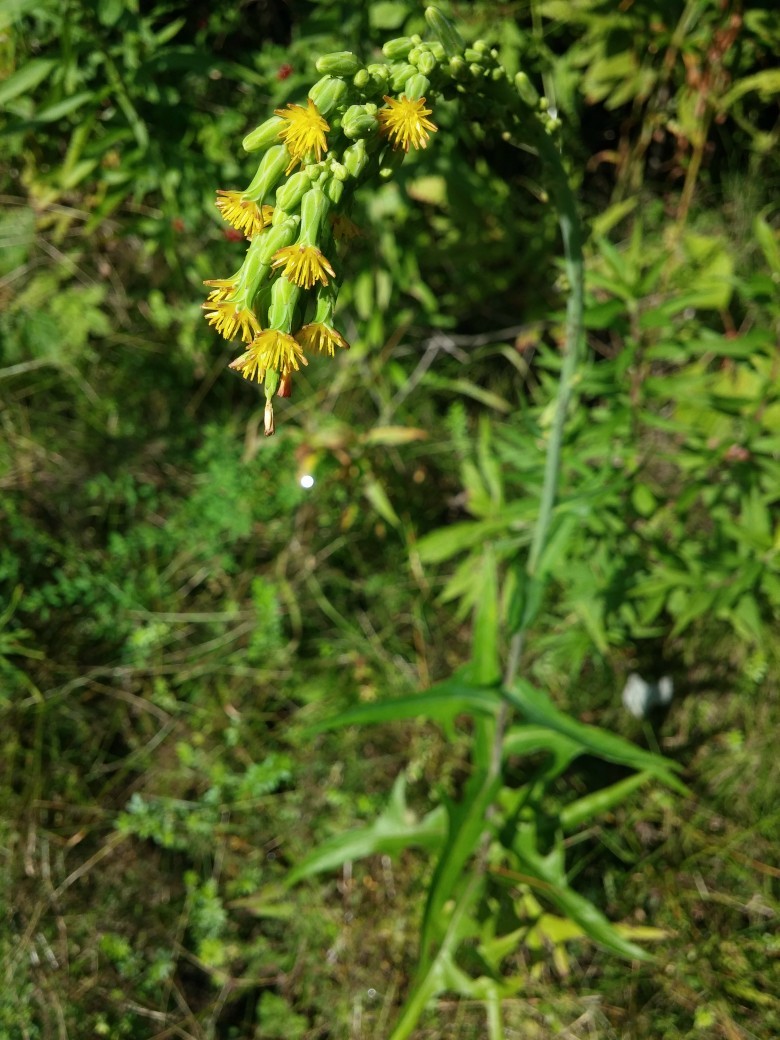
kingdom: Plantae
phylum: Tracheophyta
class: Magnoliopsida
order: Asterales
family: Asteraceae
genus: Lactuca
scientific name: Lactuca canadensis
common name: Canada lettuce
